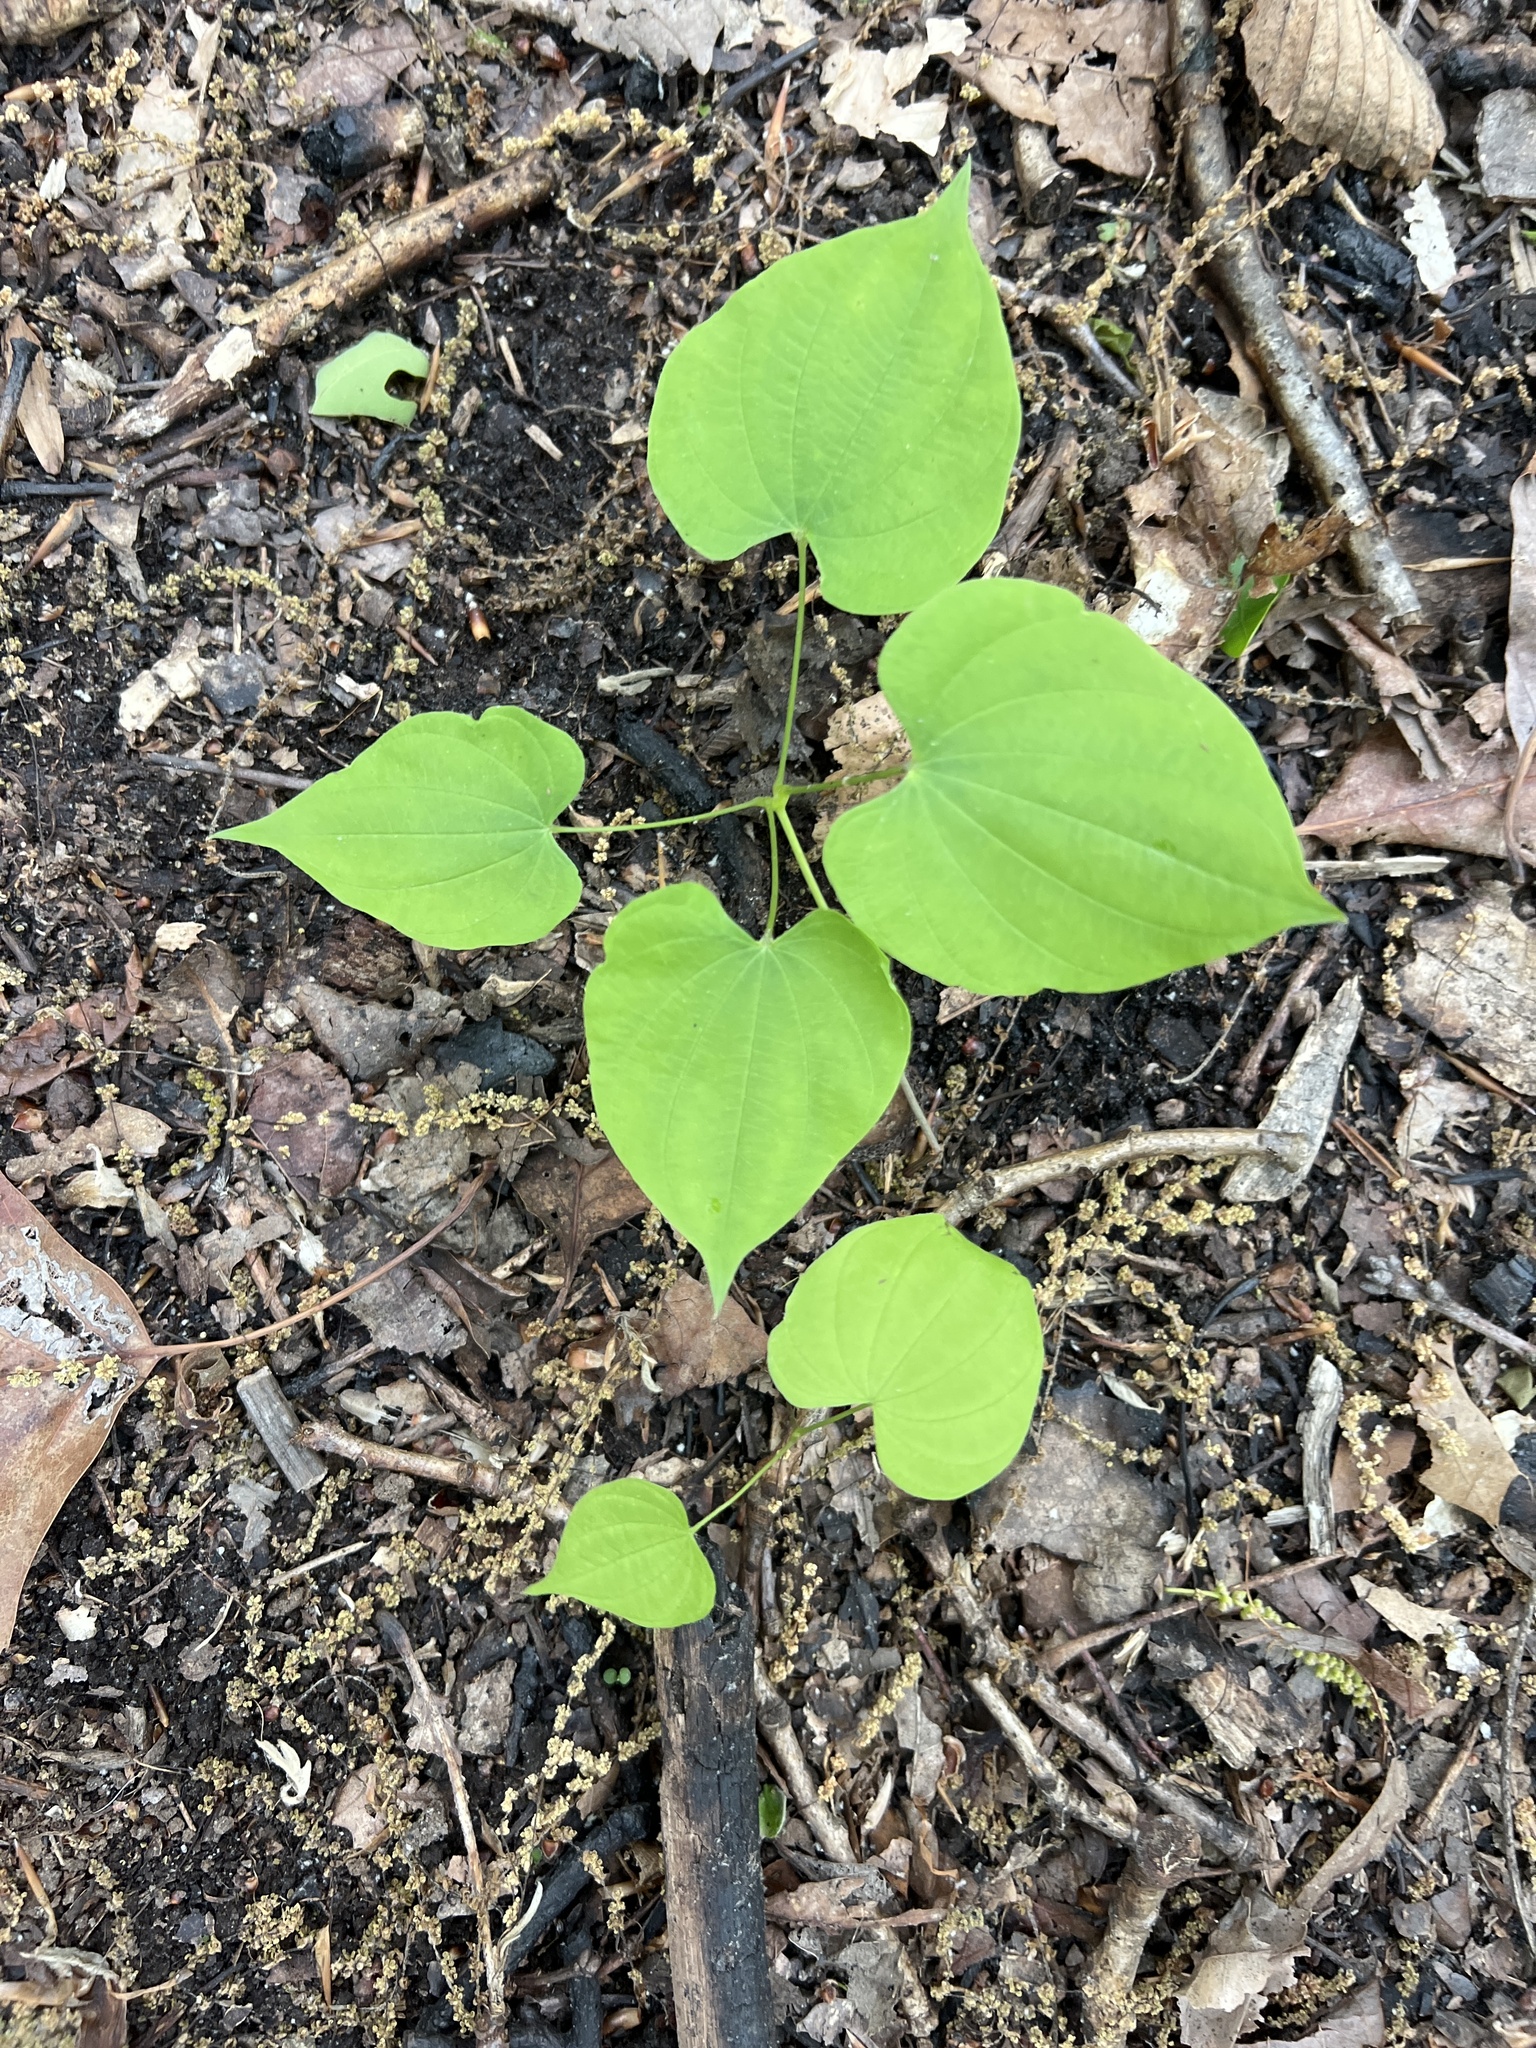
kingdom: Plantae
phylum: Tracheophyta
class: Liliopsida
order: Dioscoreales
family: Dioscoreaceae
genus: Dioscorea
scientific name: Dioscorea villosa
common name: Wild yam
